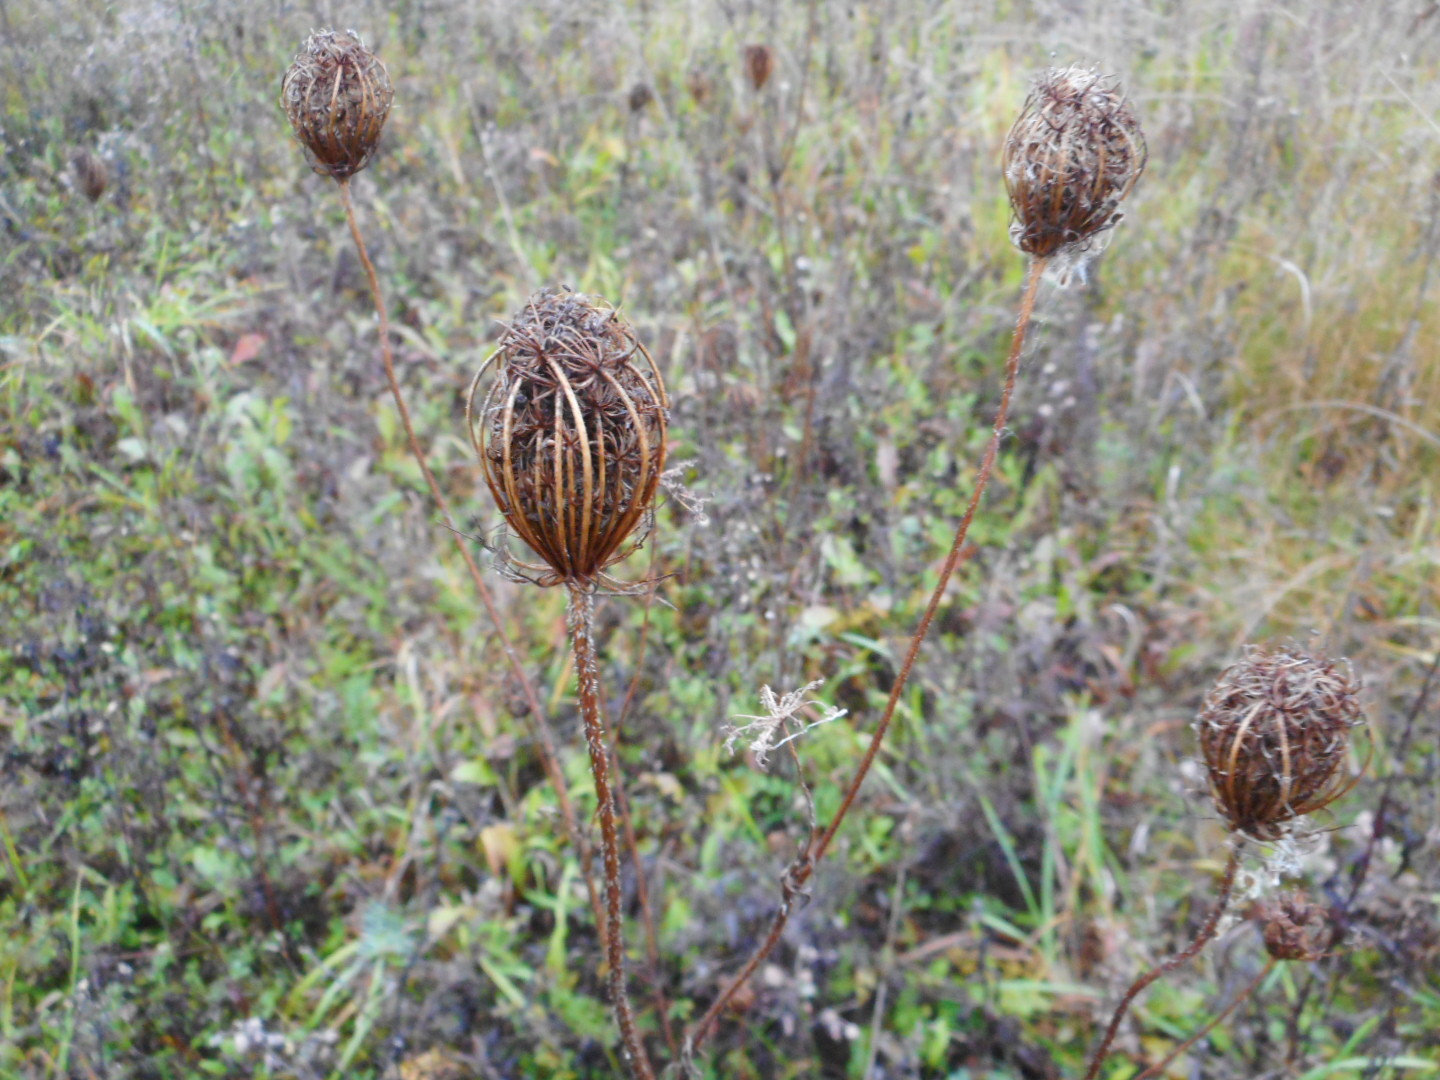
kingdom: Plantae
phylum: Tracheophyta
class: Magnoliopsida
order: Apiales
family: Apiaceae
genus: Daucus
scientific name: Daucus carota
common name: Wild carrot
